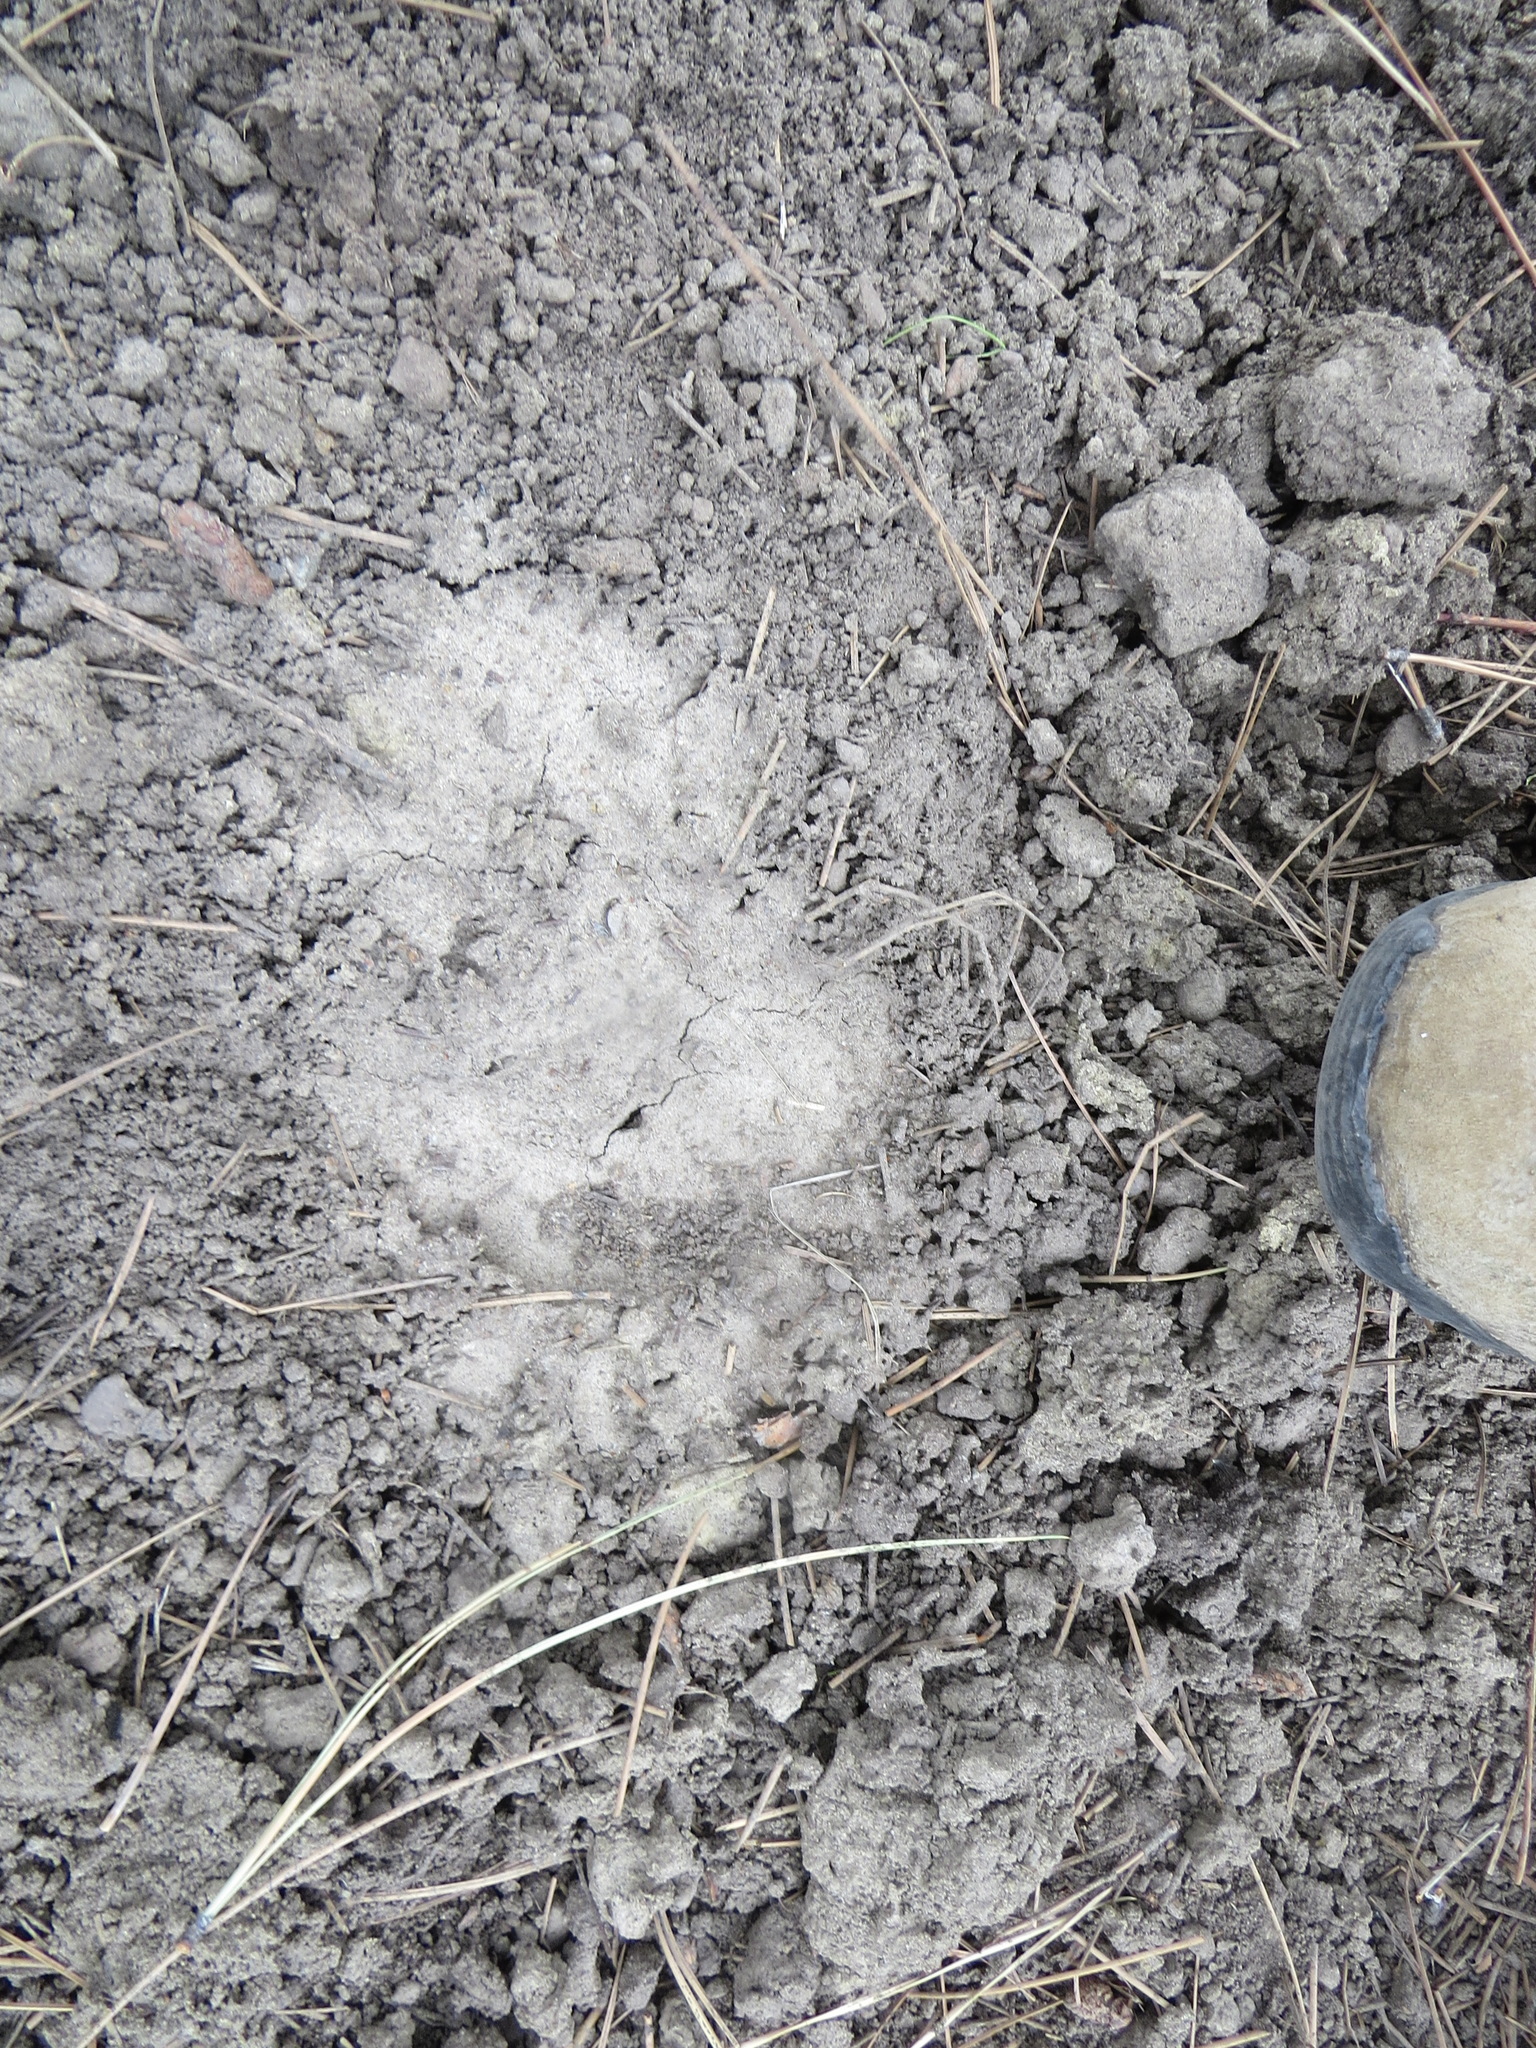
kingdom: Animalia
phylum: Chordata
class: Mammalia
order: Carnivora
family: Ursidae
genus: Ursus
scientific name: Ursus americanus
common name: American black bear
